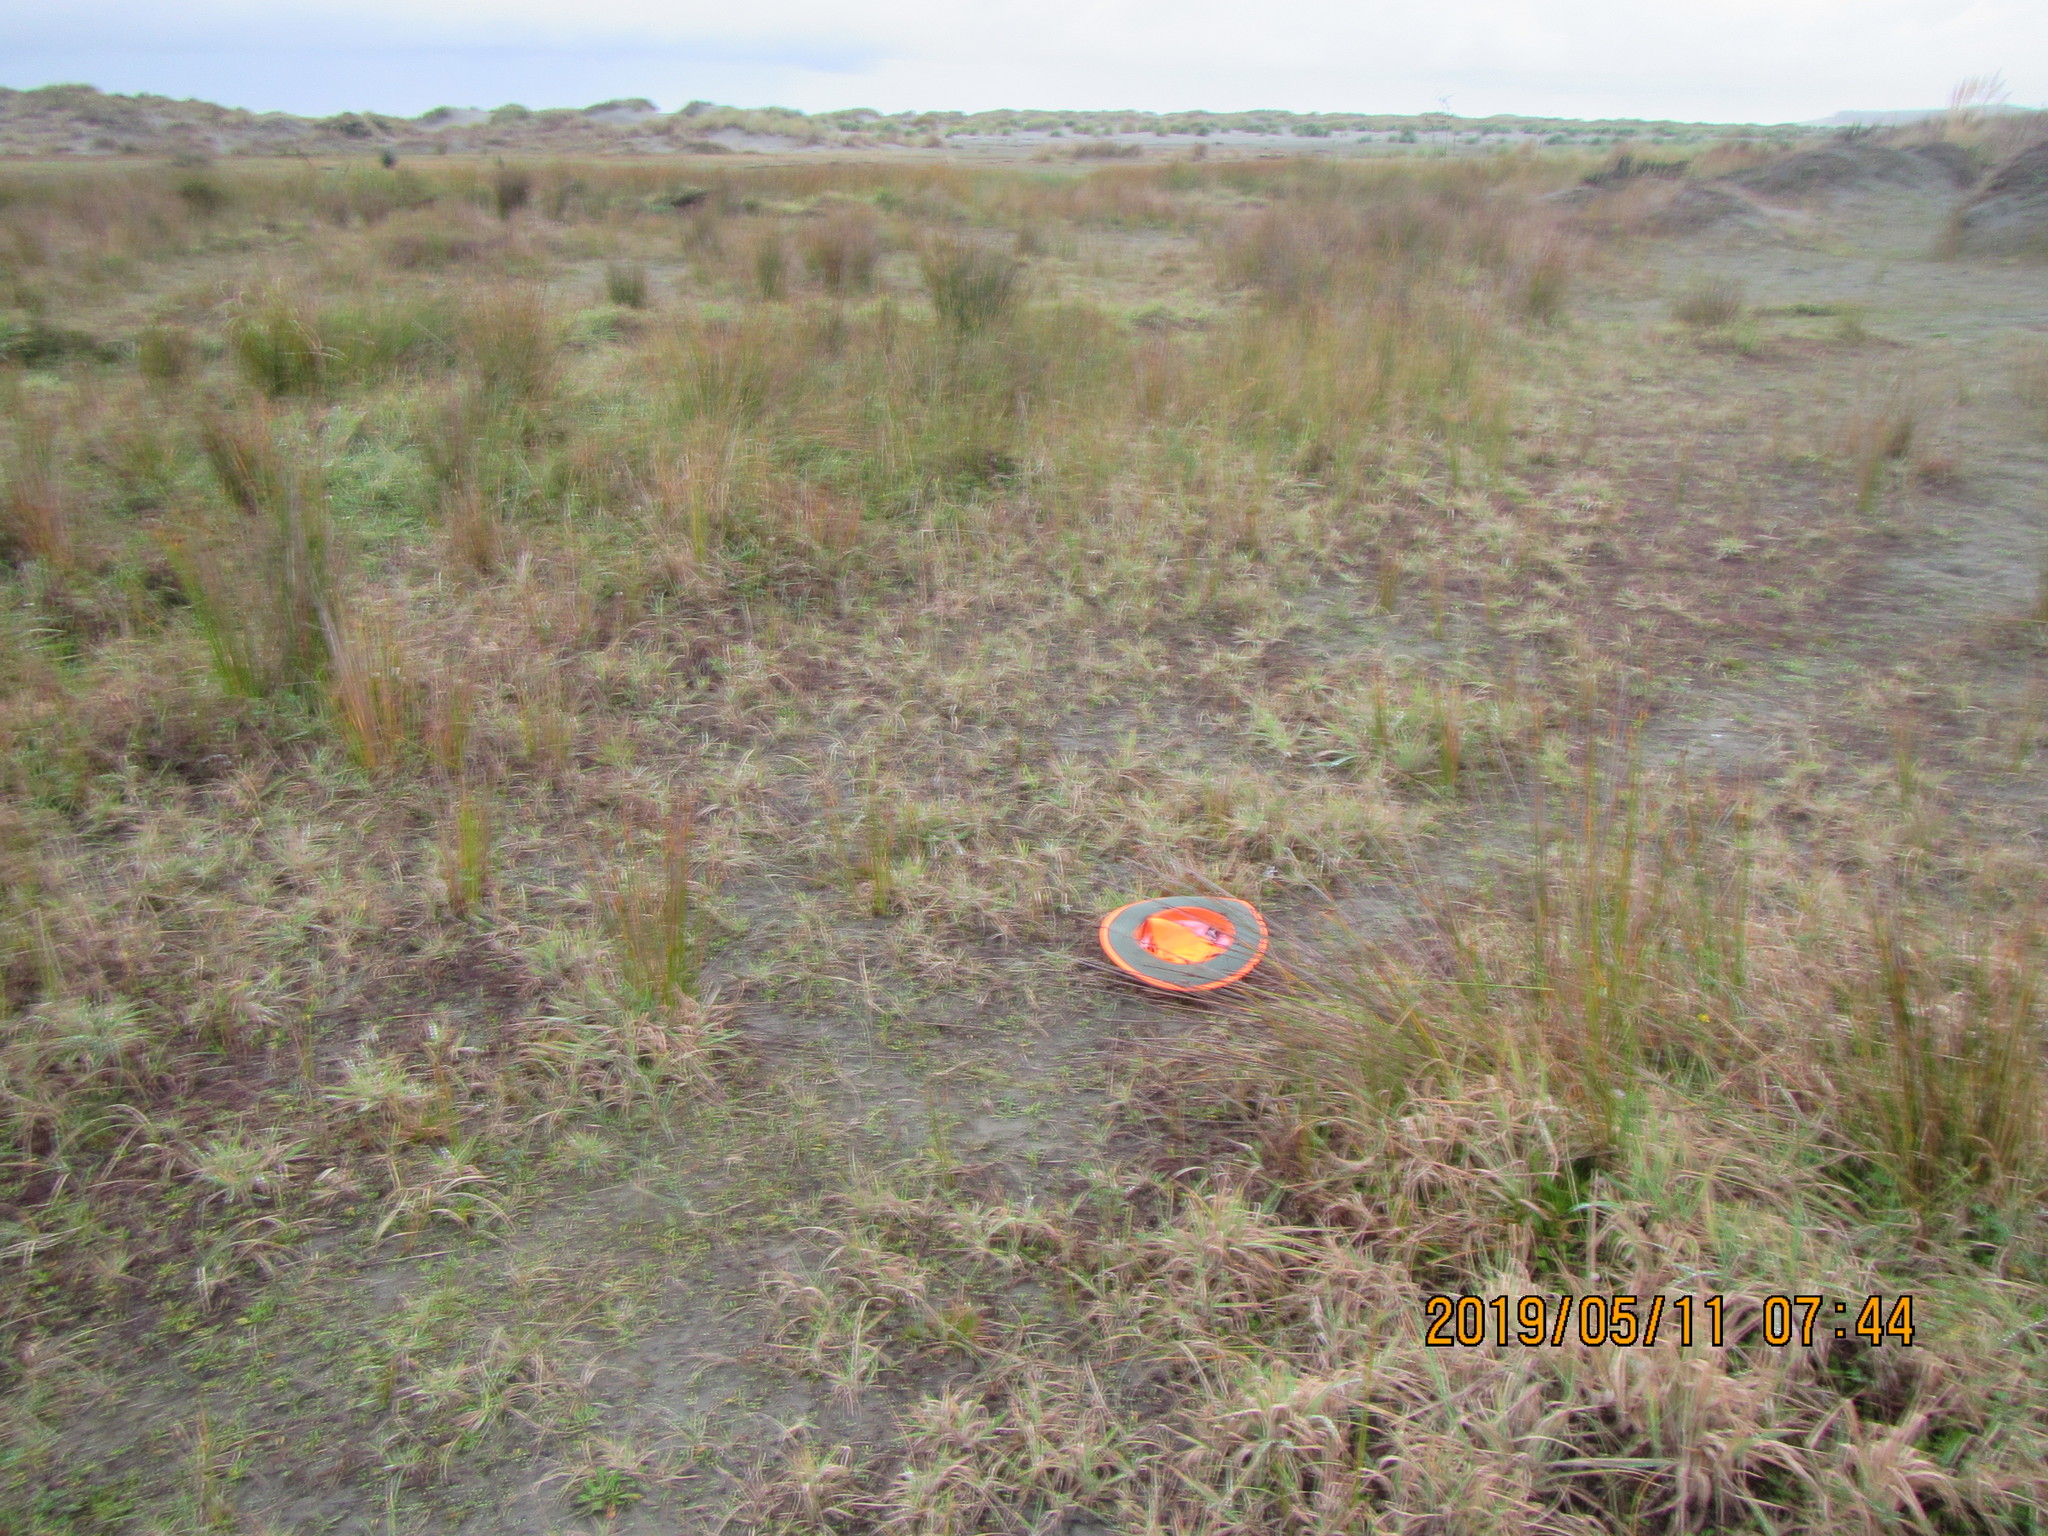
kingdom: Plantae
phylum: Tracheophyta
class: Liliopsida
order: Poales
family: Juncaceae
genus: Juncus
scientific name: Juncus caespiticius
